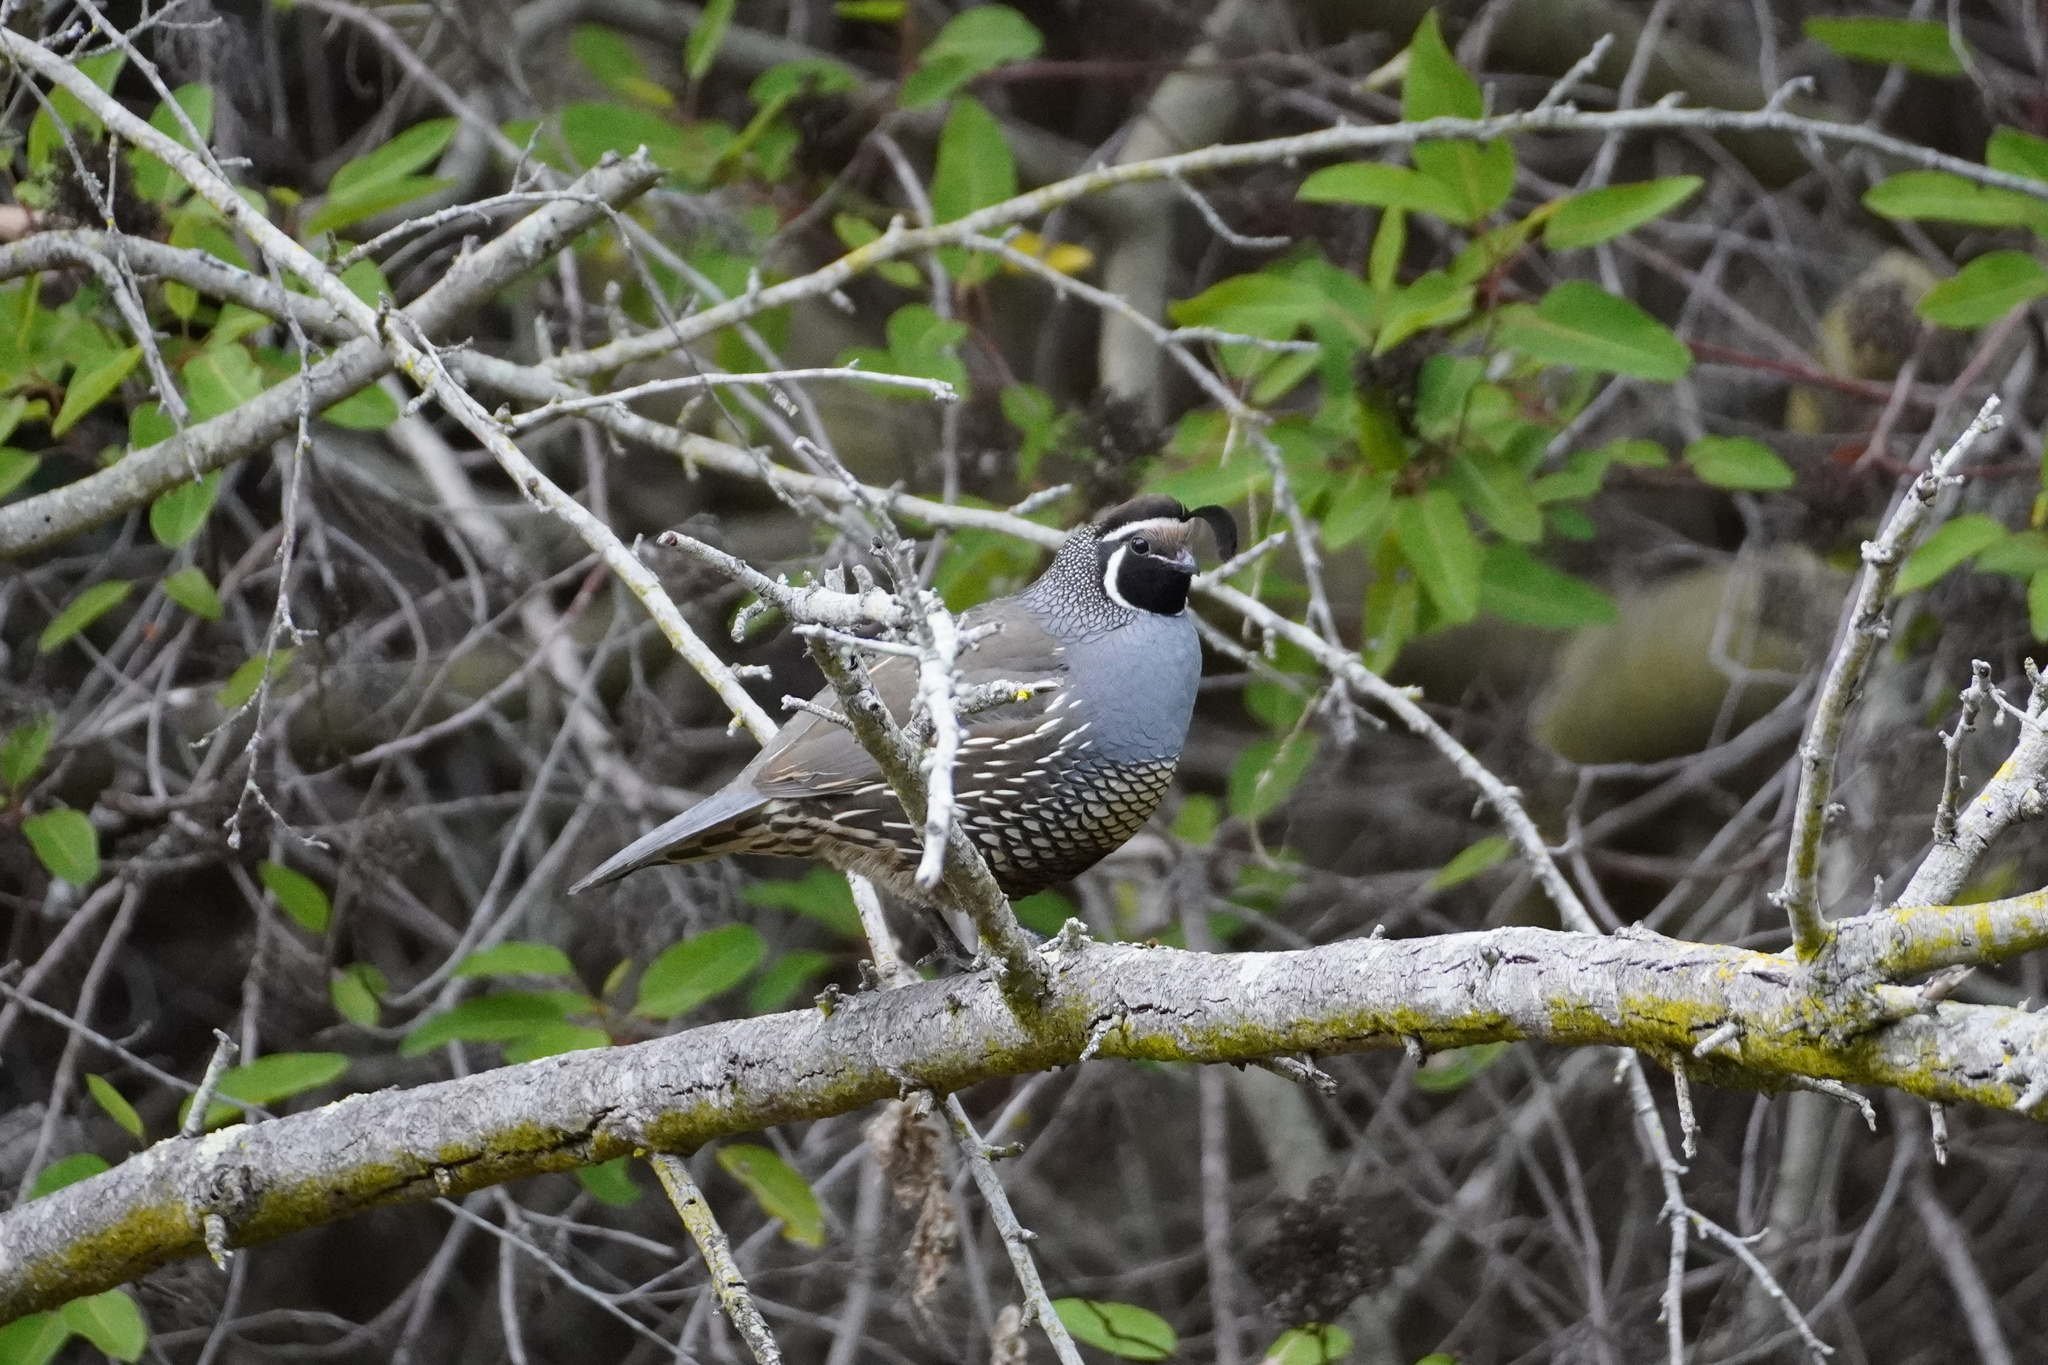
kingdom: Animalia
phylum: Chordata
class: Aves
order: Galliformes
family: Odontophoridae
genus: Callipepla
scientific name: Callipepla californica
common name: California quail
